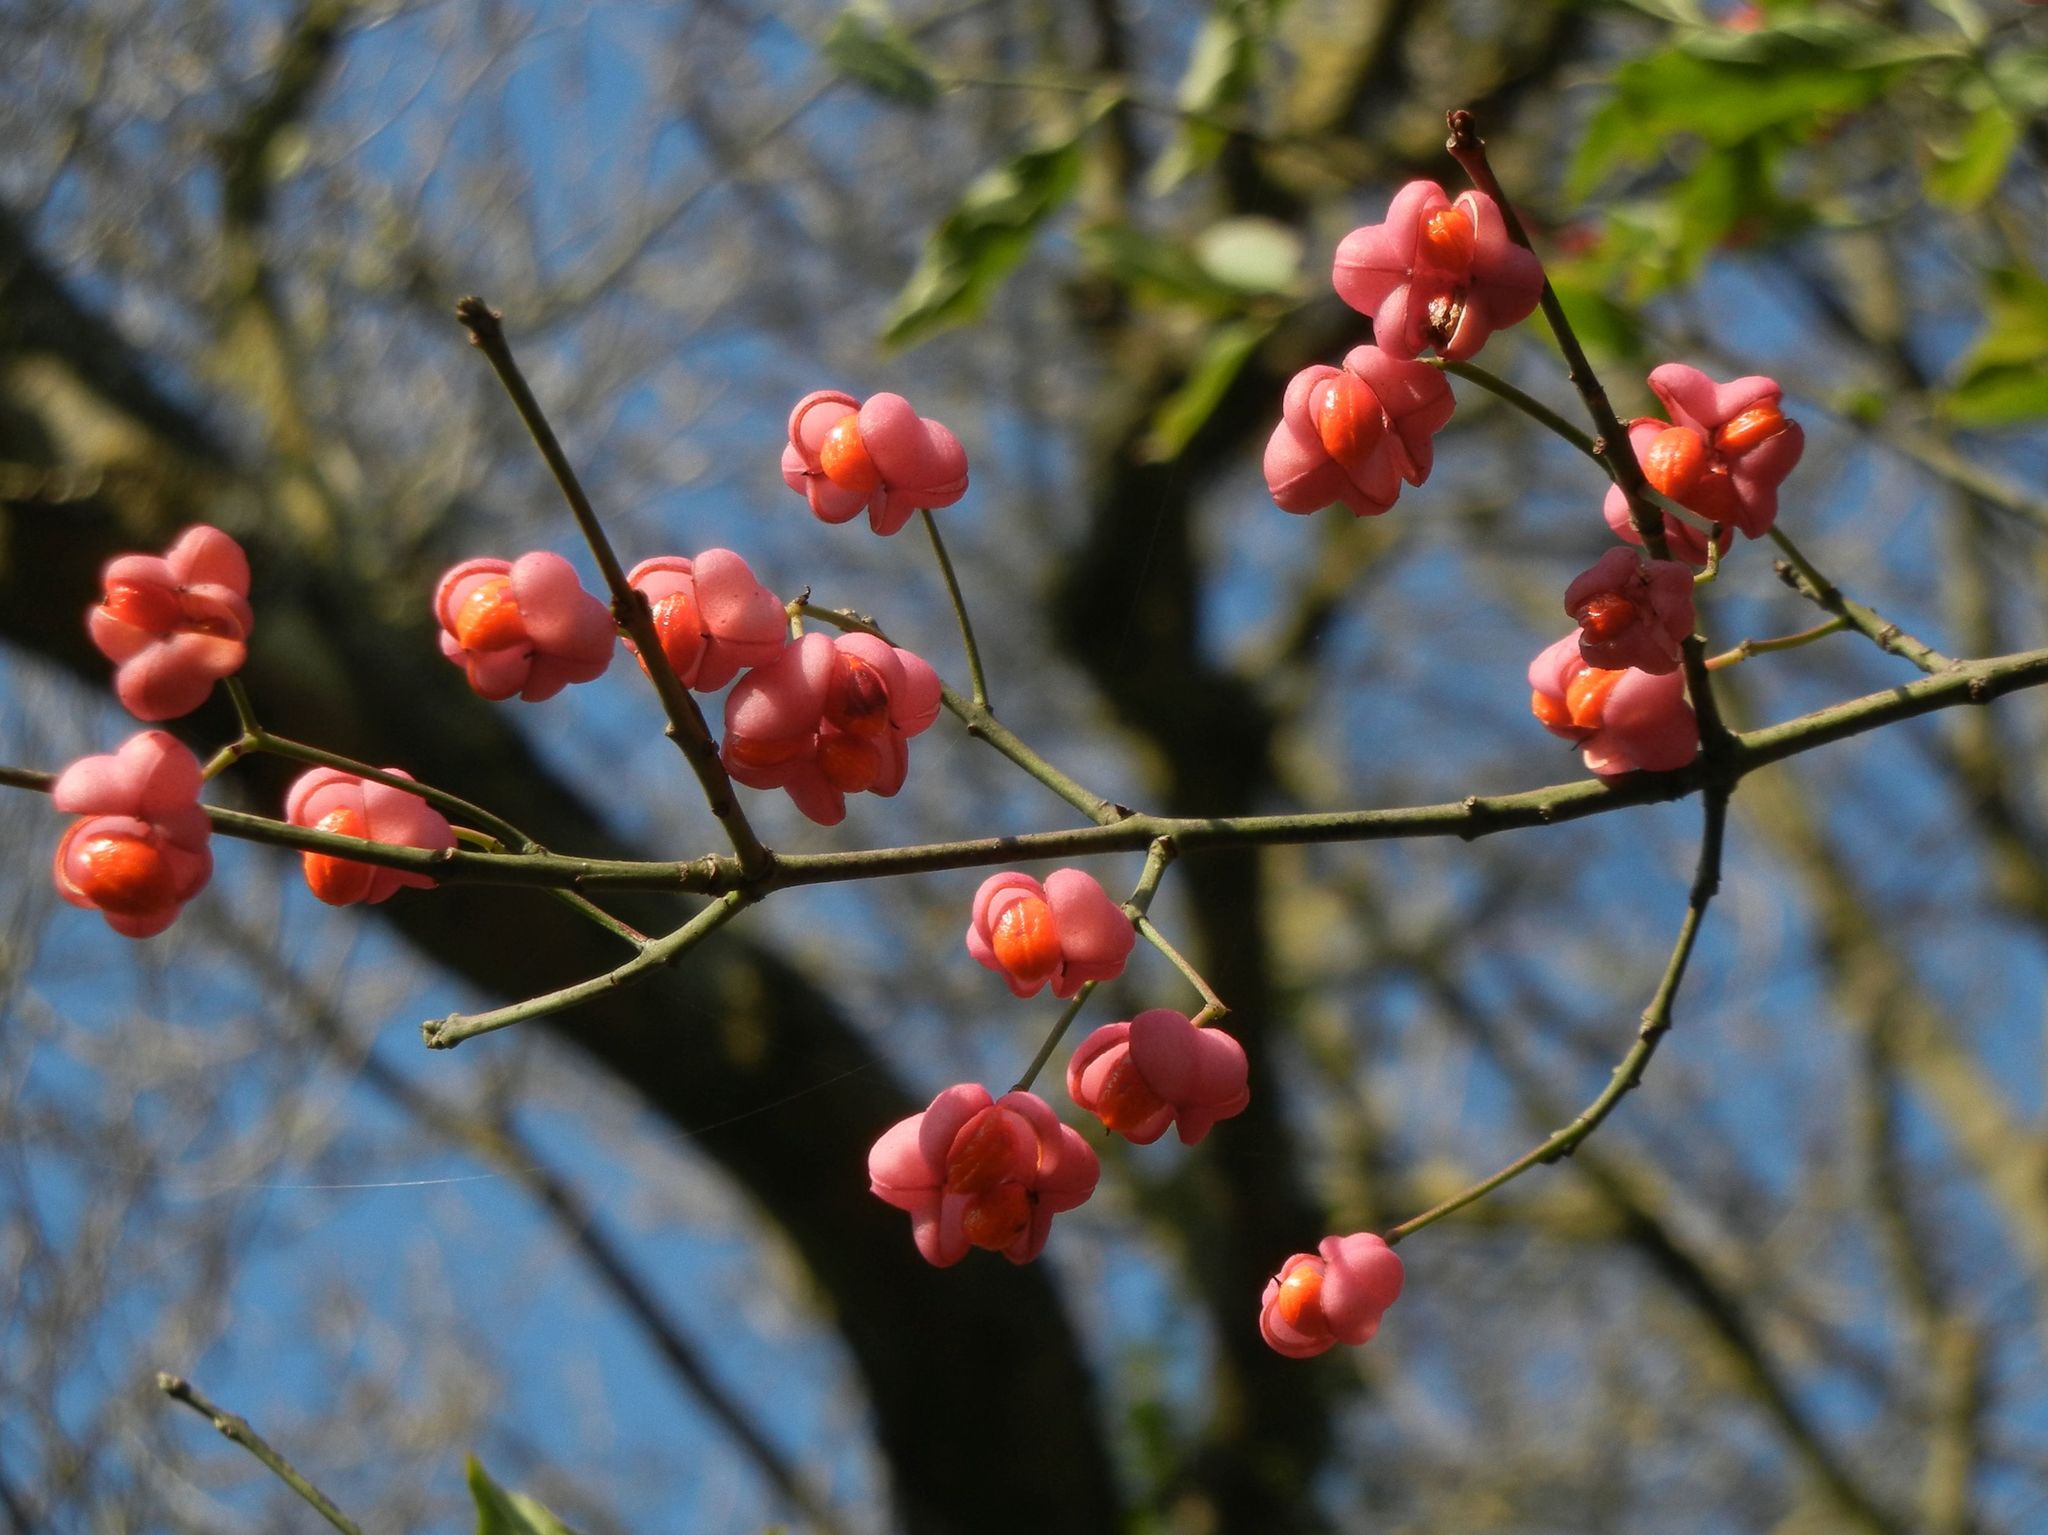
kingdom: Plantae
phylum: Tracheophyta
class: Magnoliopsida
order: Celastrales
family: Celastraceae
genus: Euonymus
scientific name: Euonymus europaeus
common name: Spindle
